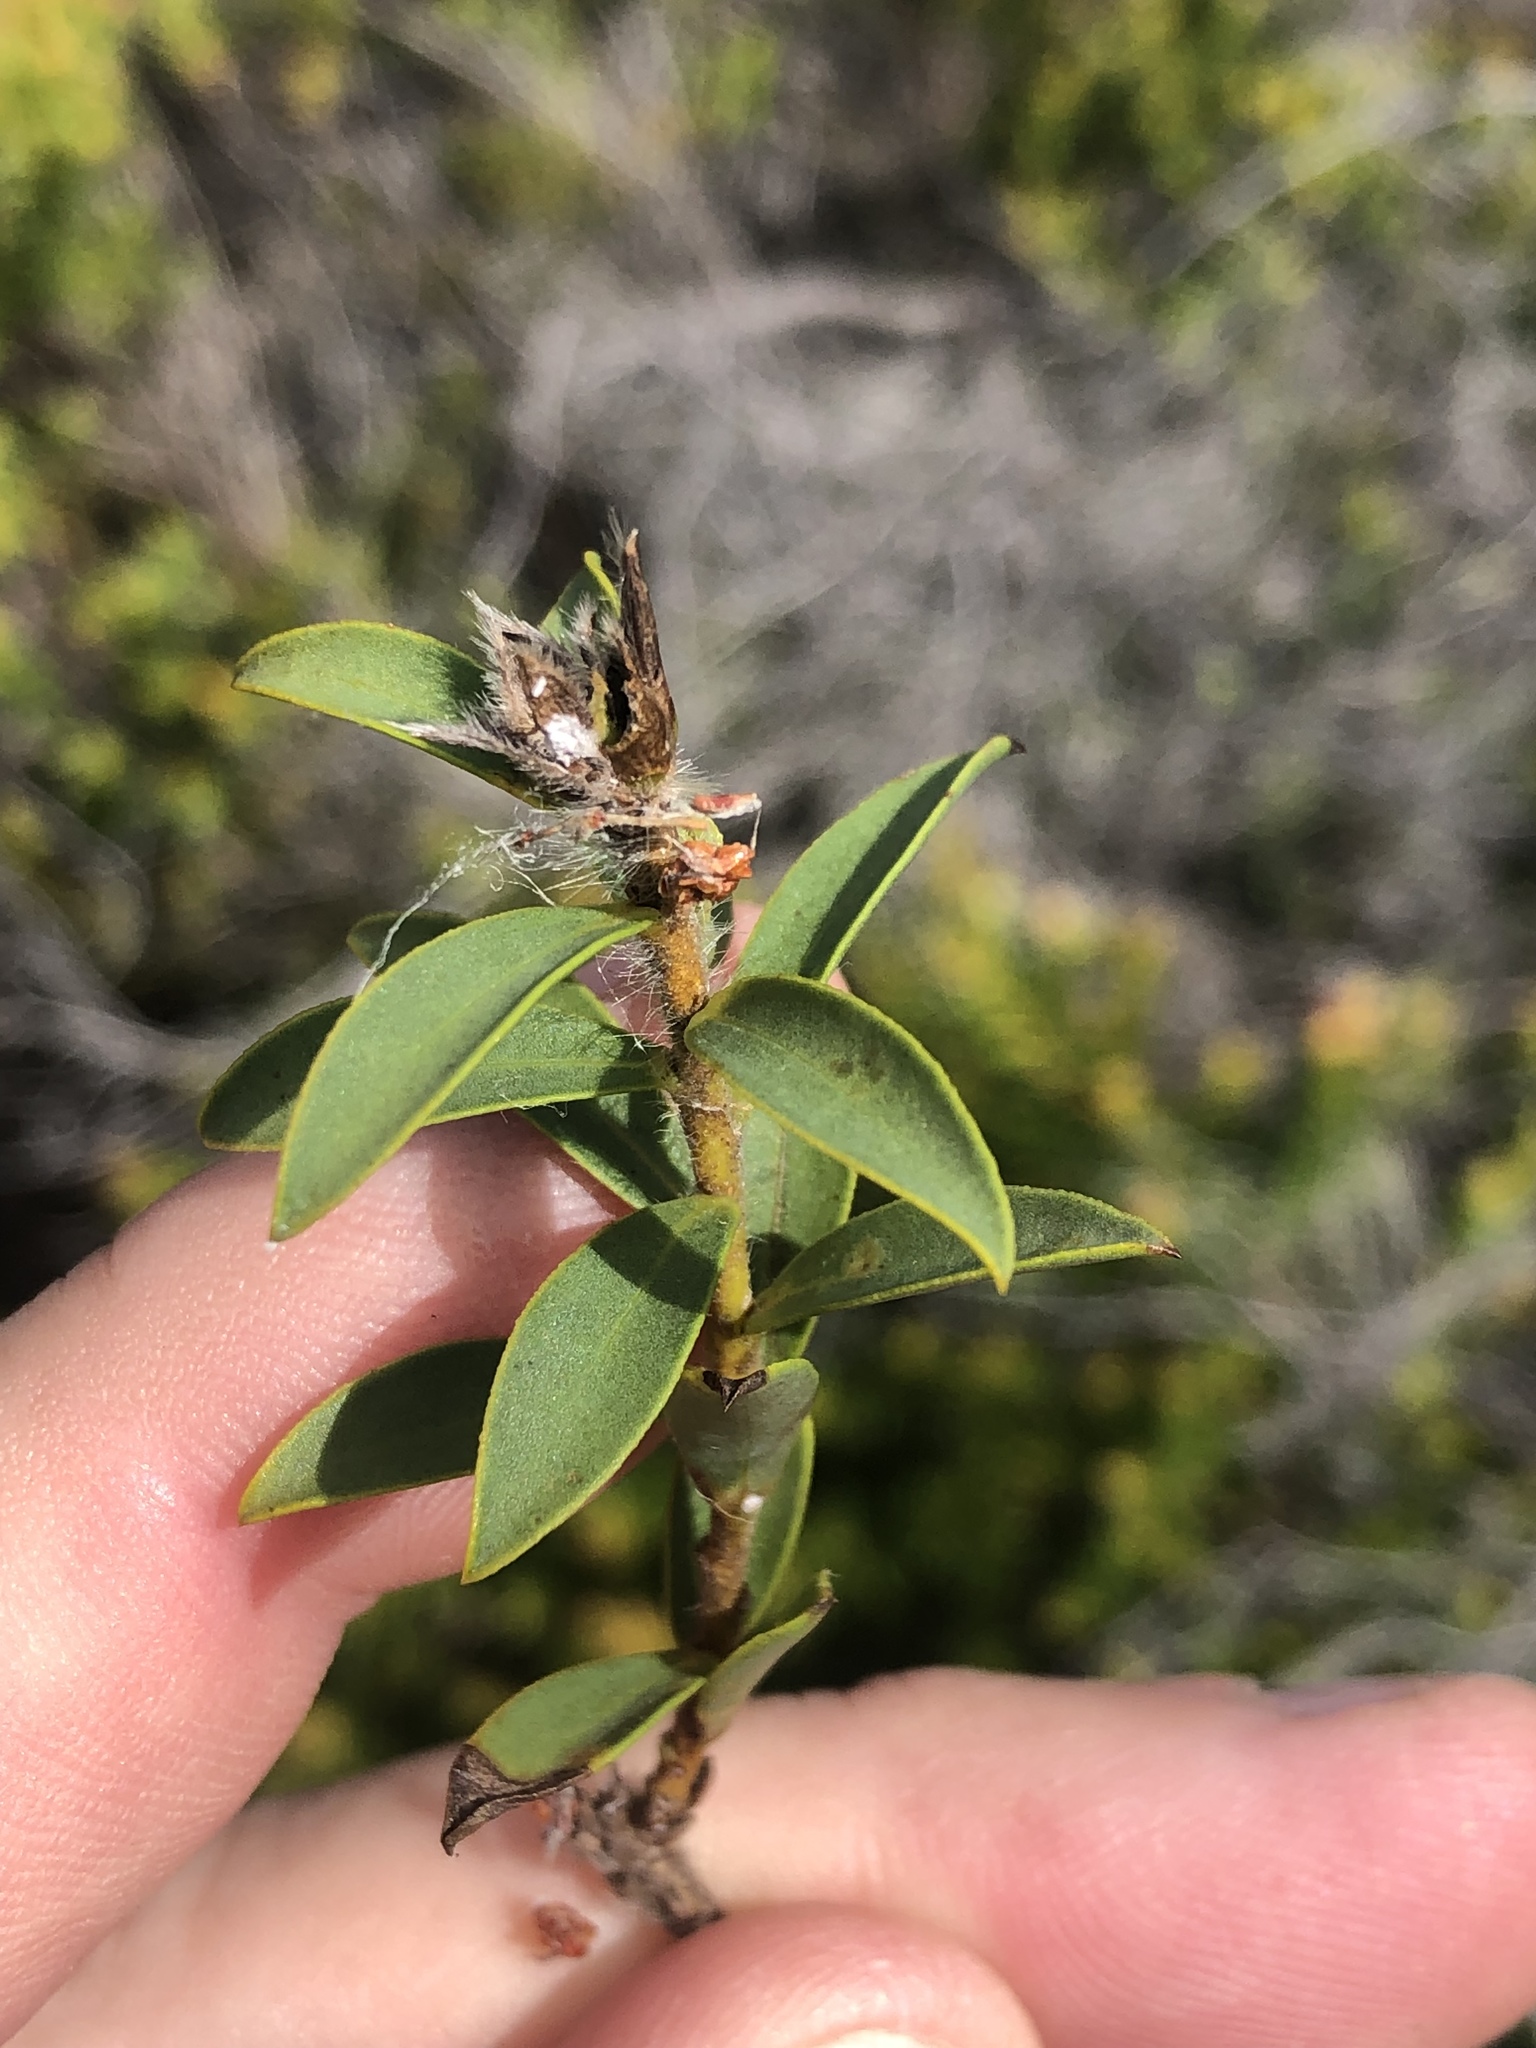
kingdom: Plantae
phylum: Tracheophyta
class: Magnoliopsida
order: Fabales
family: Fabaceae
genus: Liparia
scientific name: Liparia hirsuta
